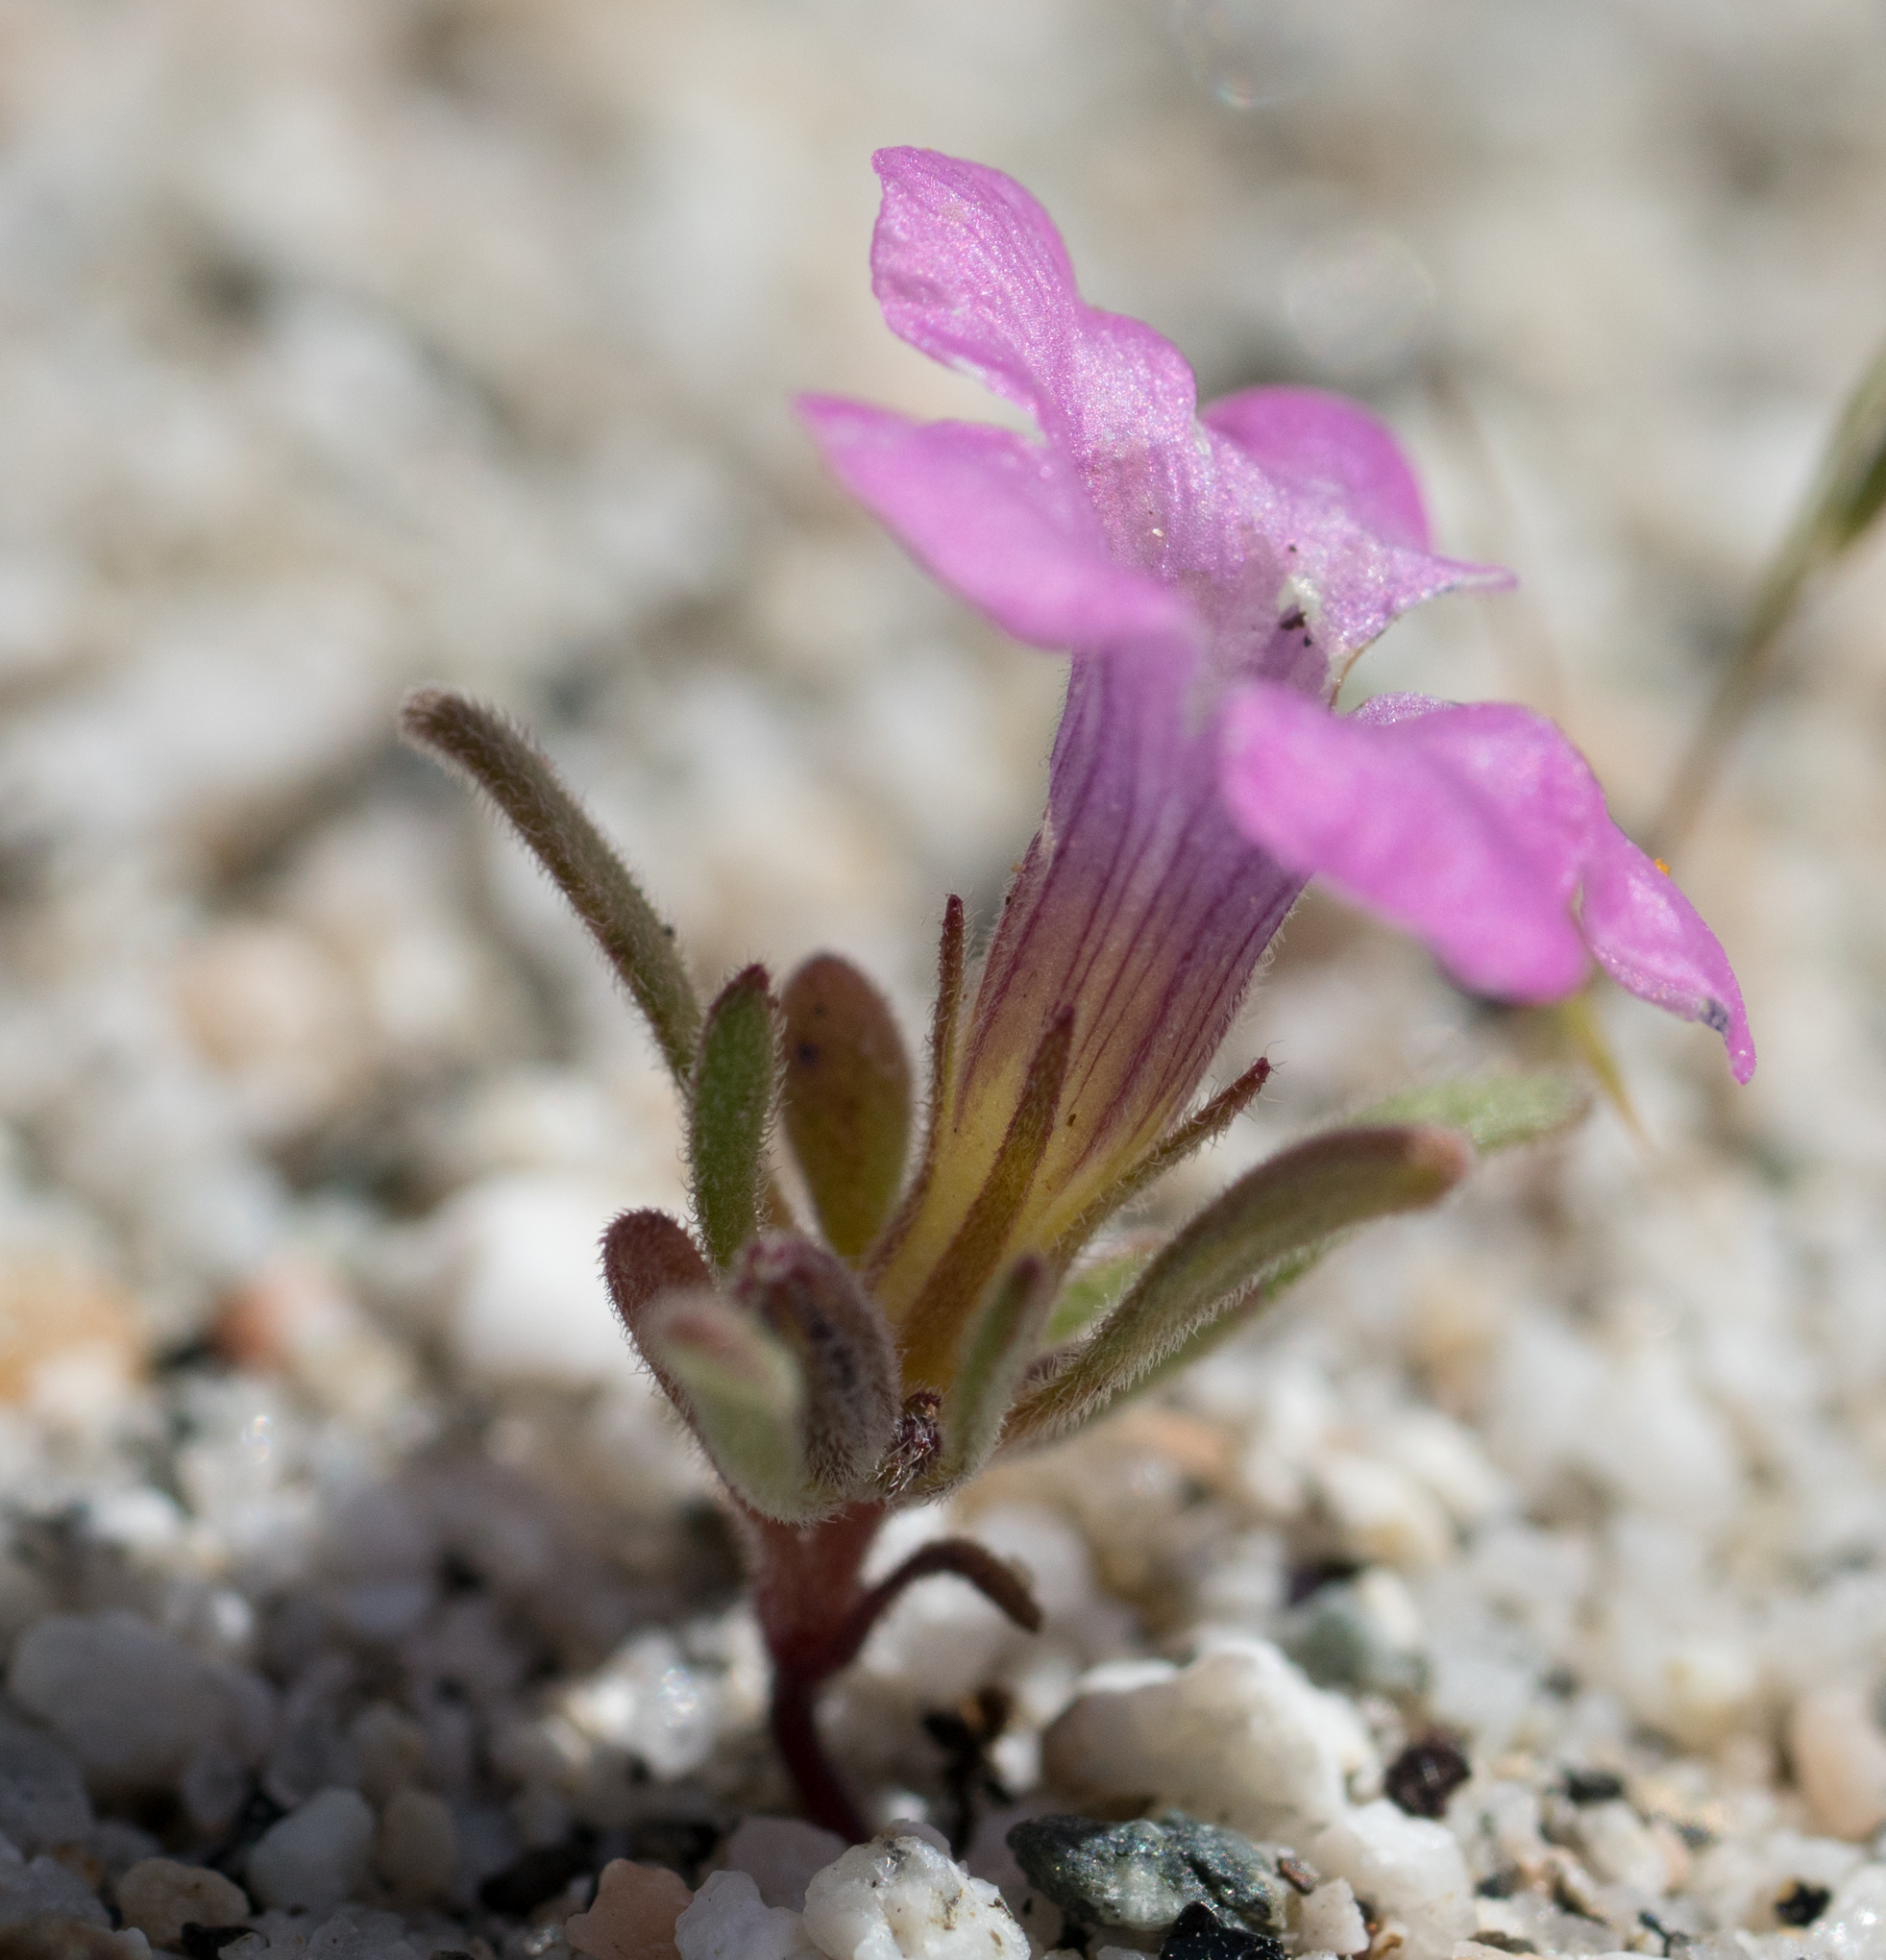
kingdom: Plantae
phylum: Tracheophyta
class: Magnoliopsida
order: Boraginales
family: Namaceae
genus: Nama
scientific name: Nama demissa
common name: Leafy nama
